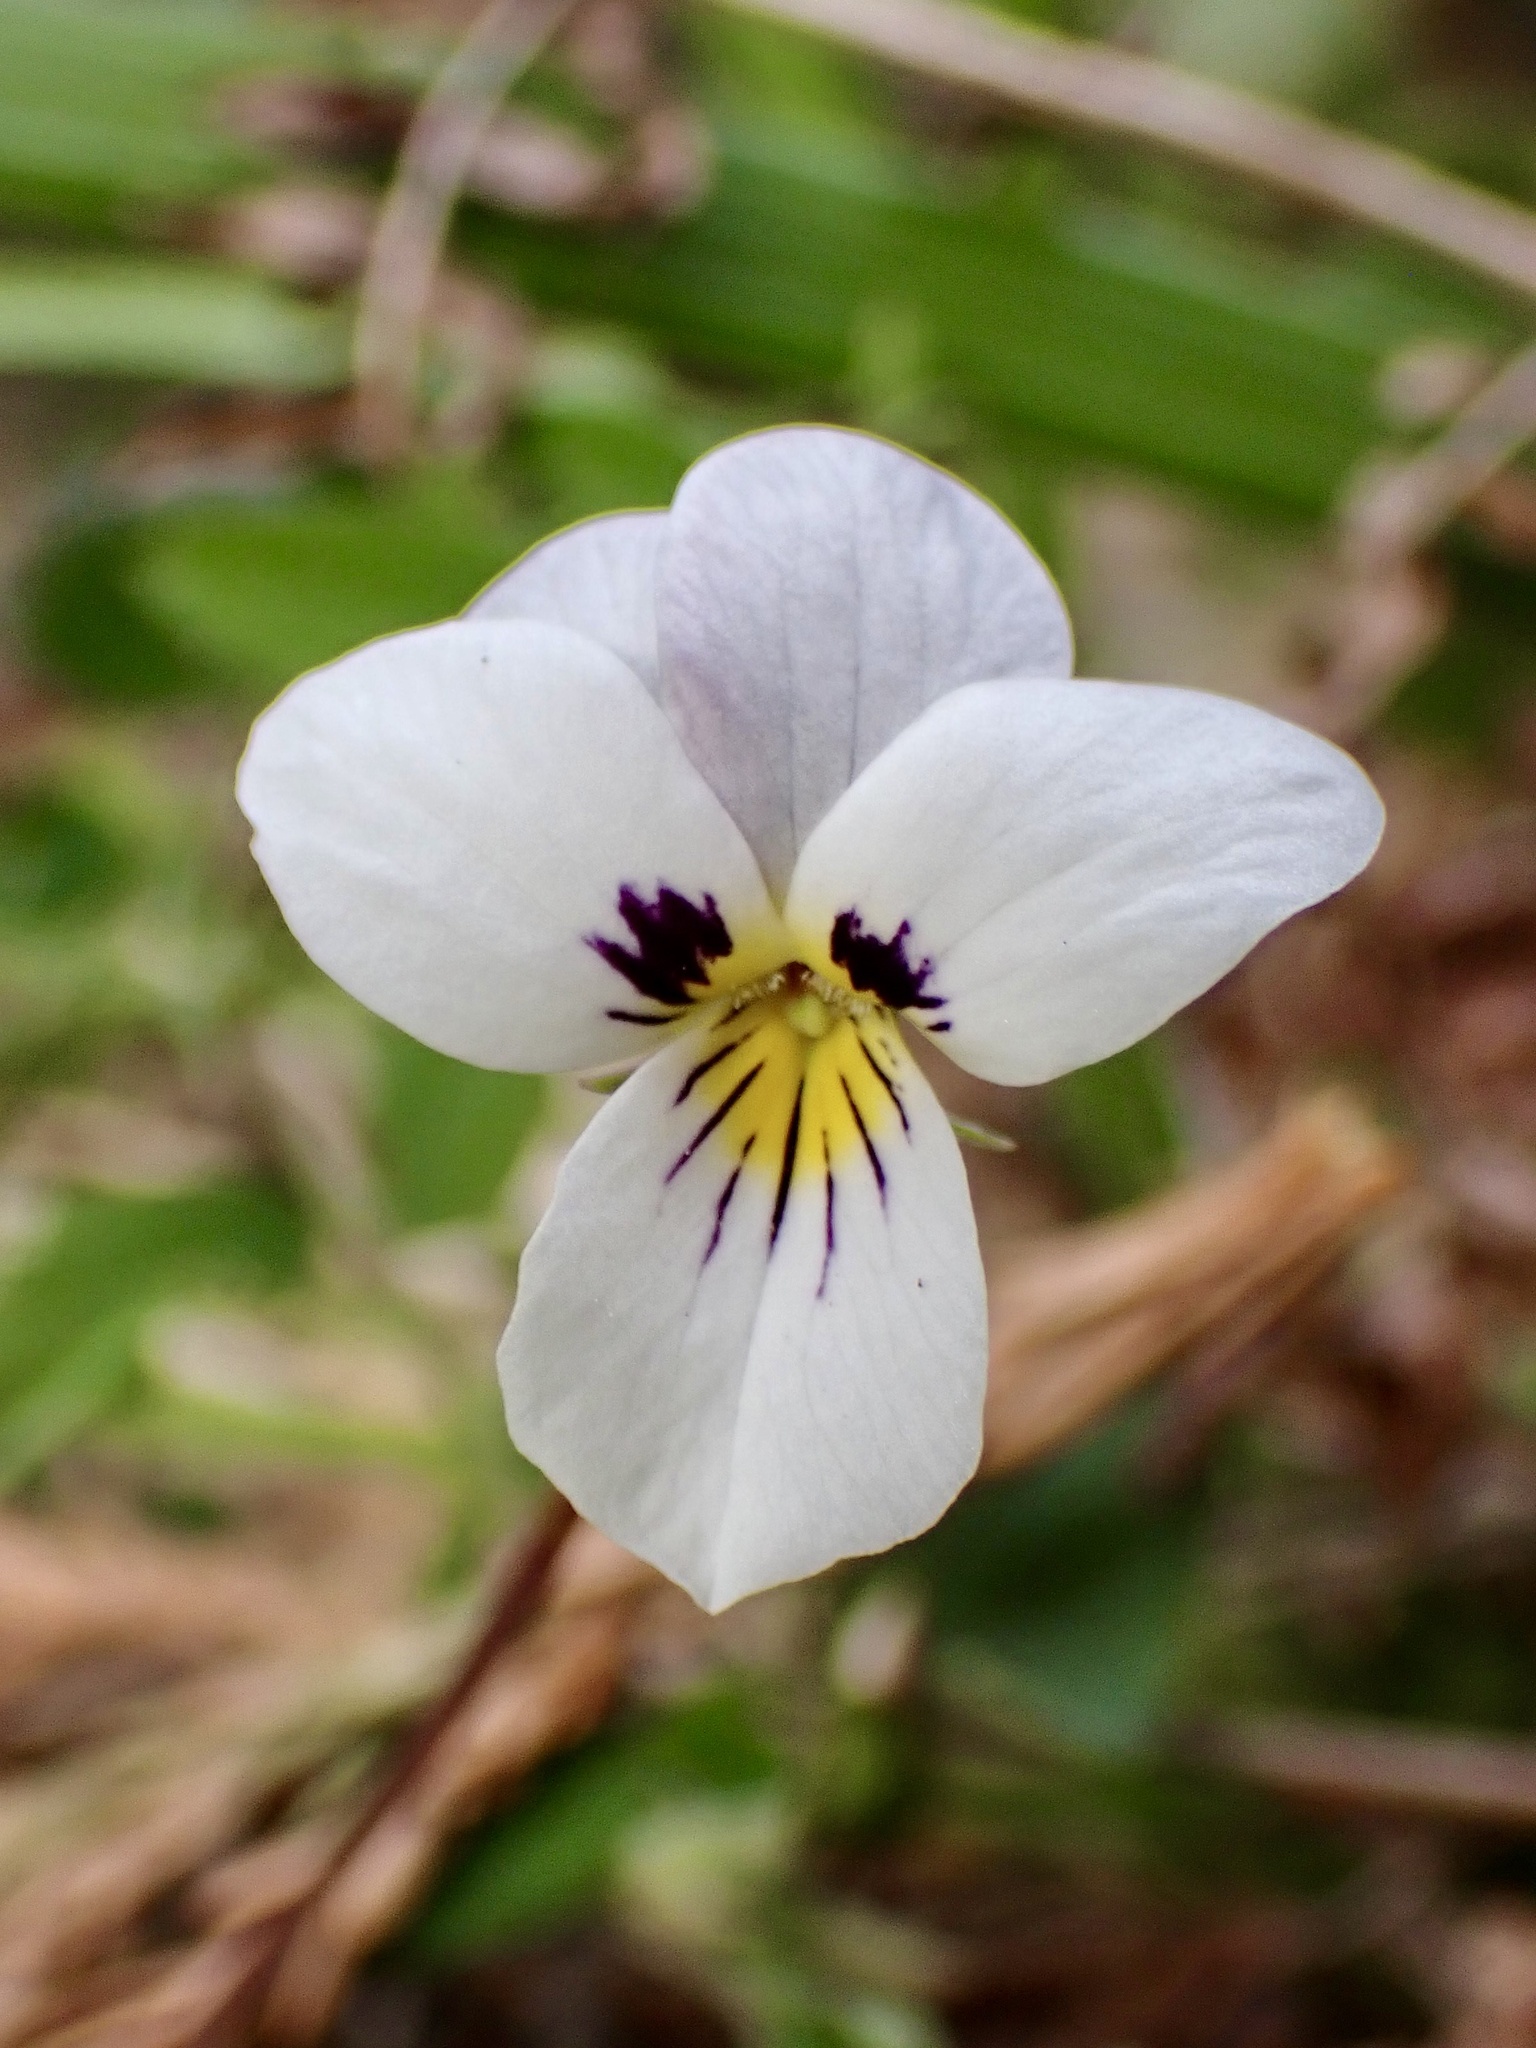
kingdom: Plantae
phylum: Tracheophyta
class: Magnoliopsida
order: Malpighiales
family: Violaceae
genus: Viola
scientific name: Viola ocellata
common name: Western heart's ease
